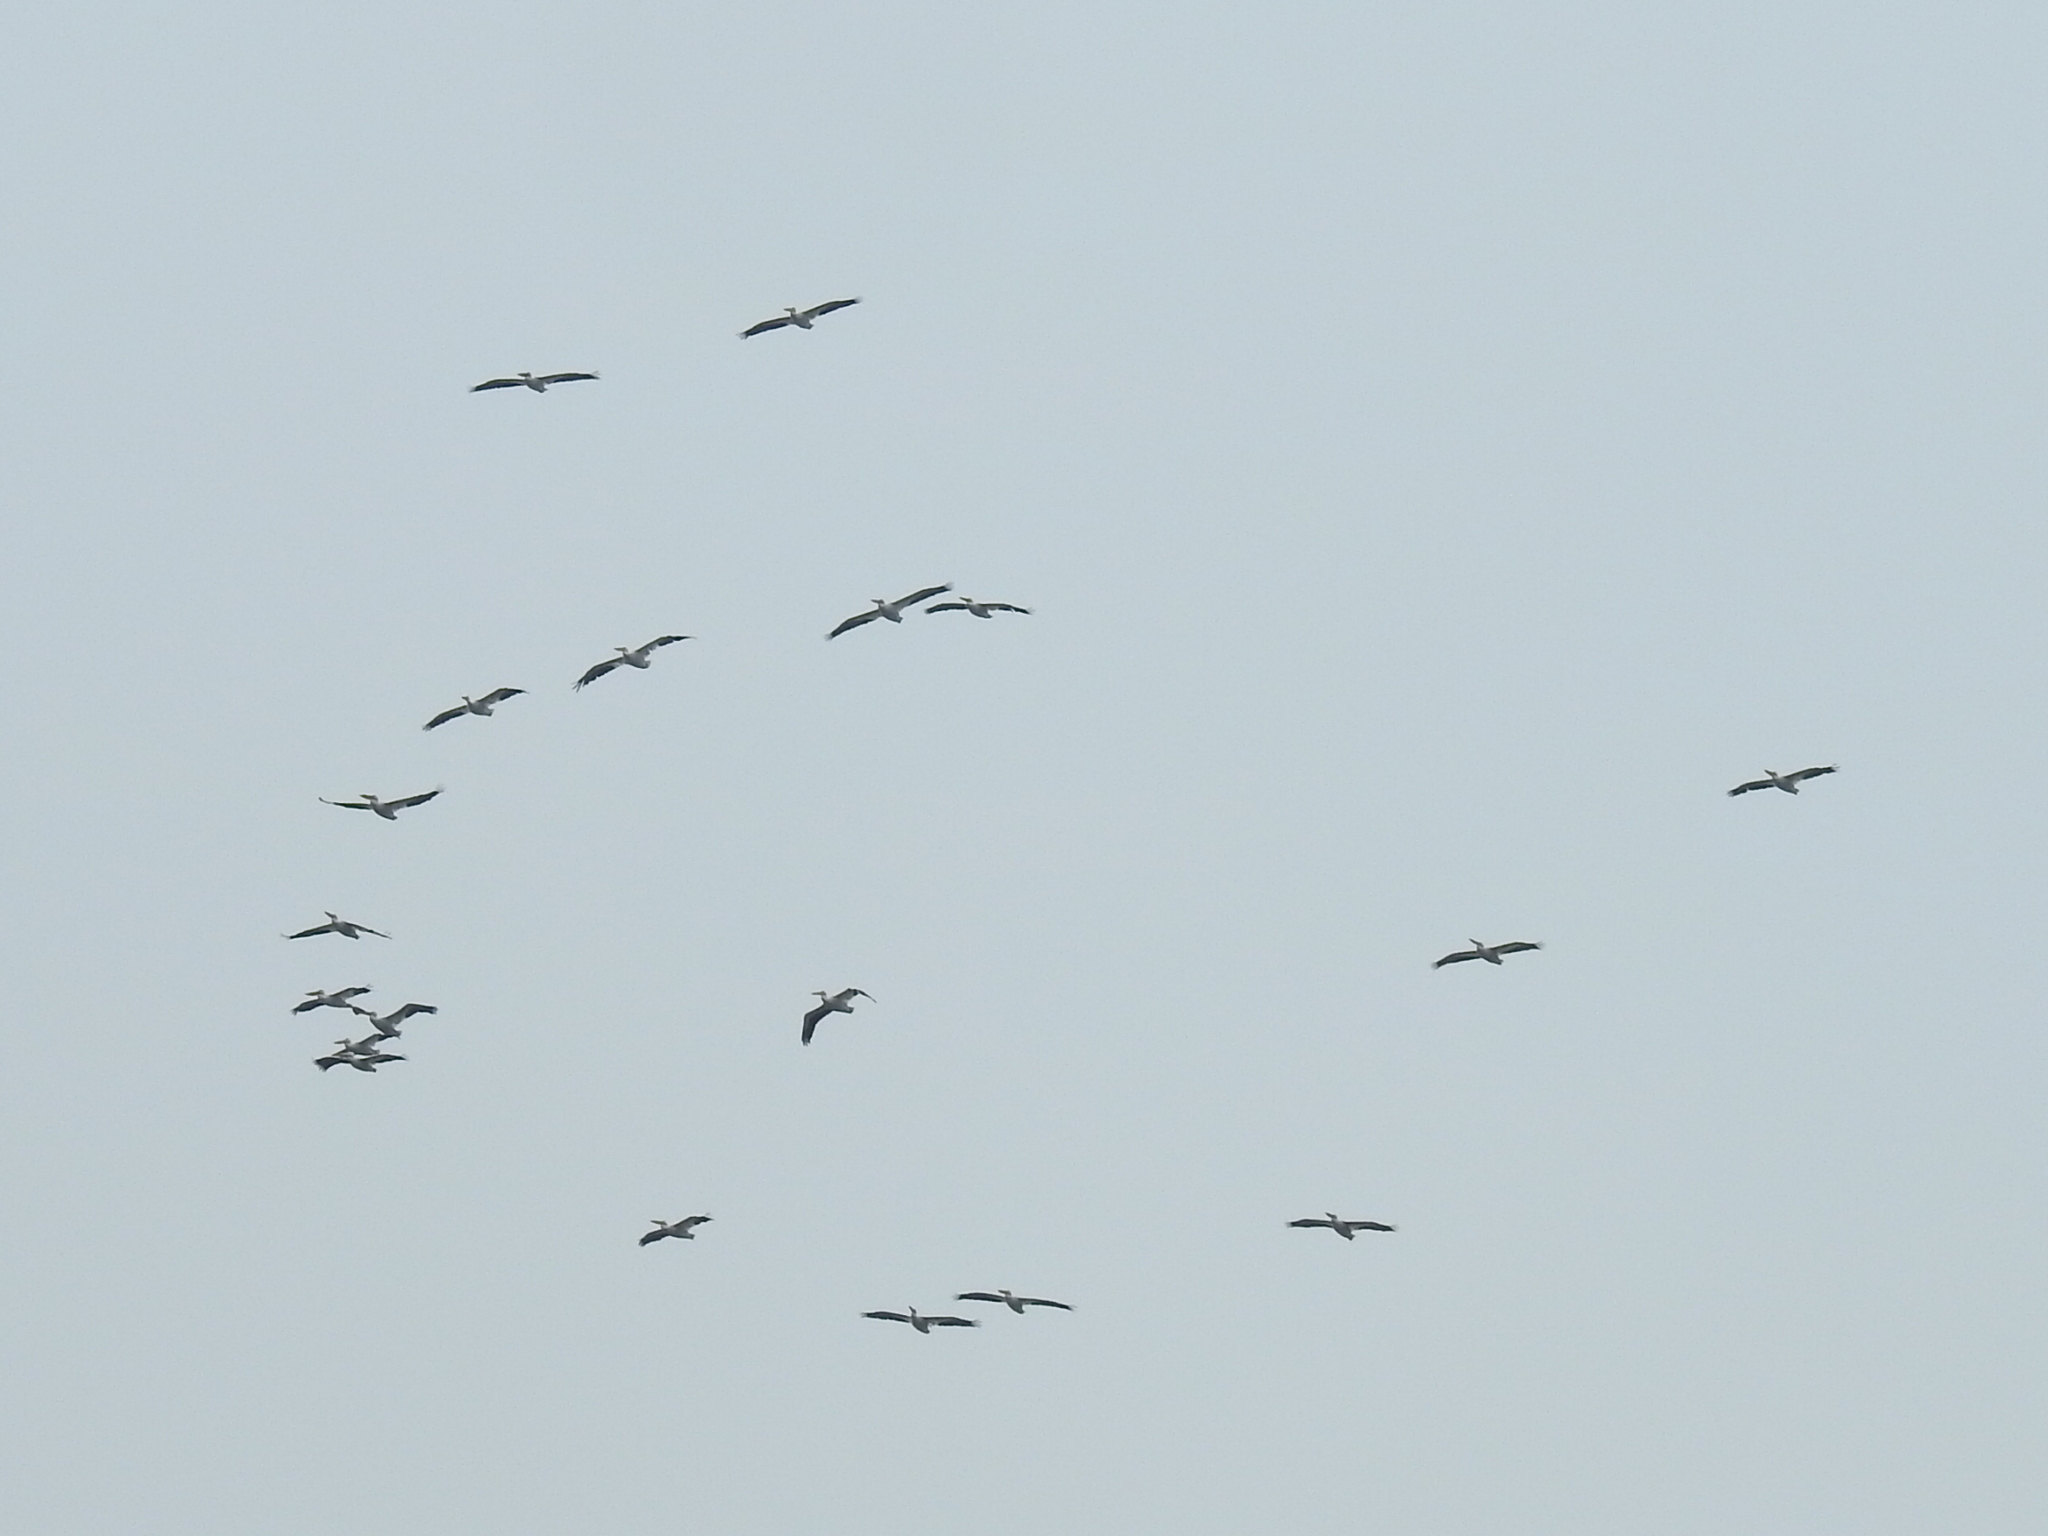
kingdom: Animalia
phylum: Chordata
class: Aves
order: Pelecaniformes
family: Pelecanidae
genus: Pelecanus
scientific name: Pelecanus erythrorhynchos
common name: American white pelican
